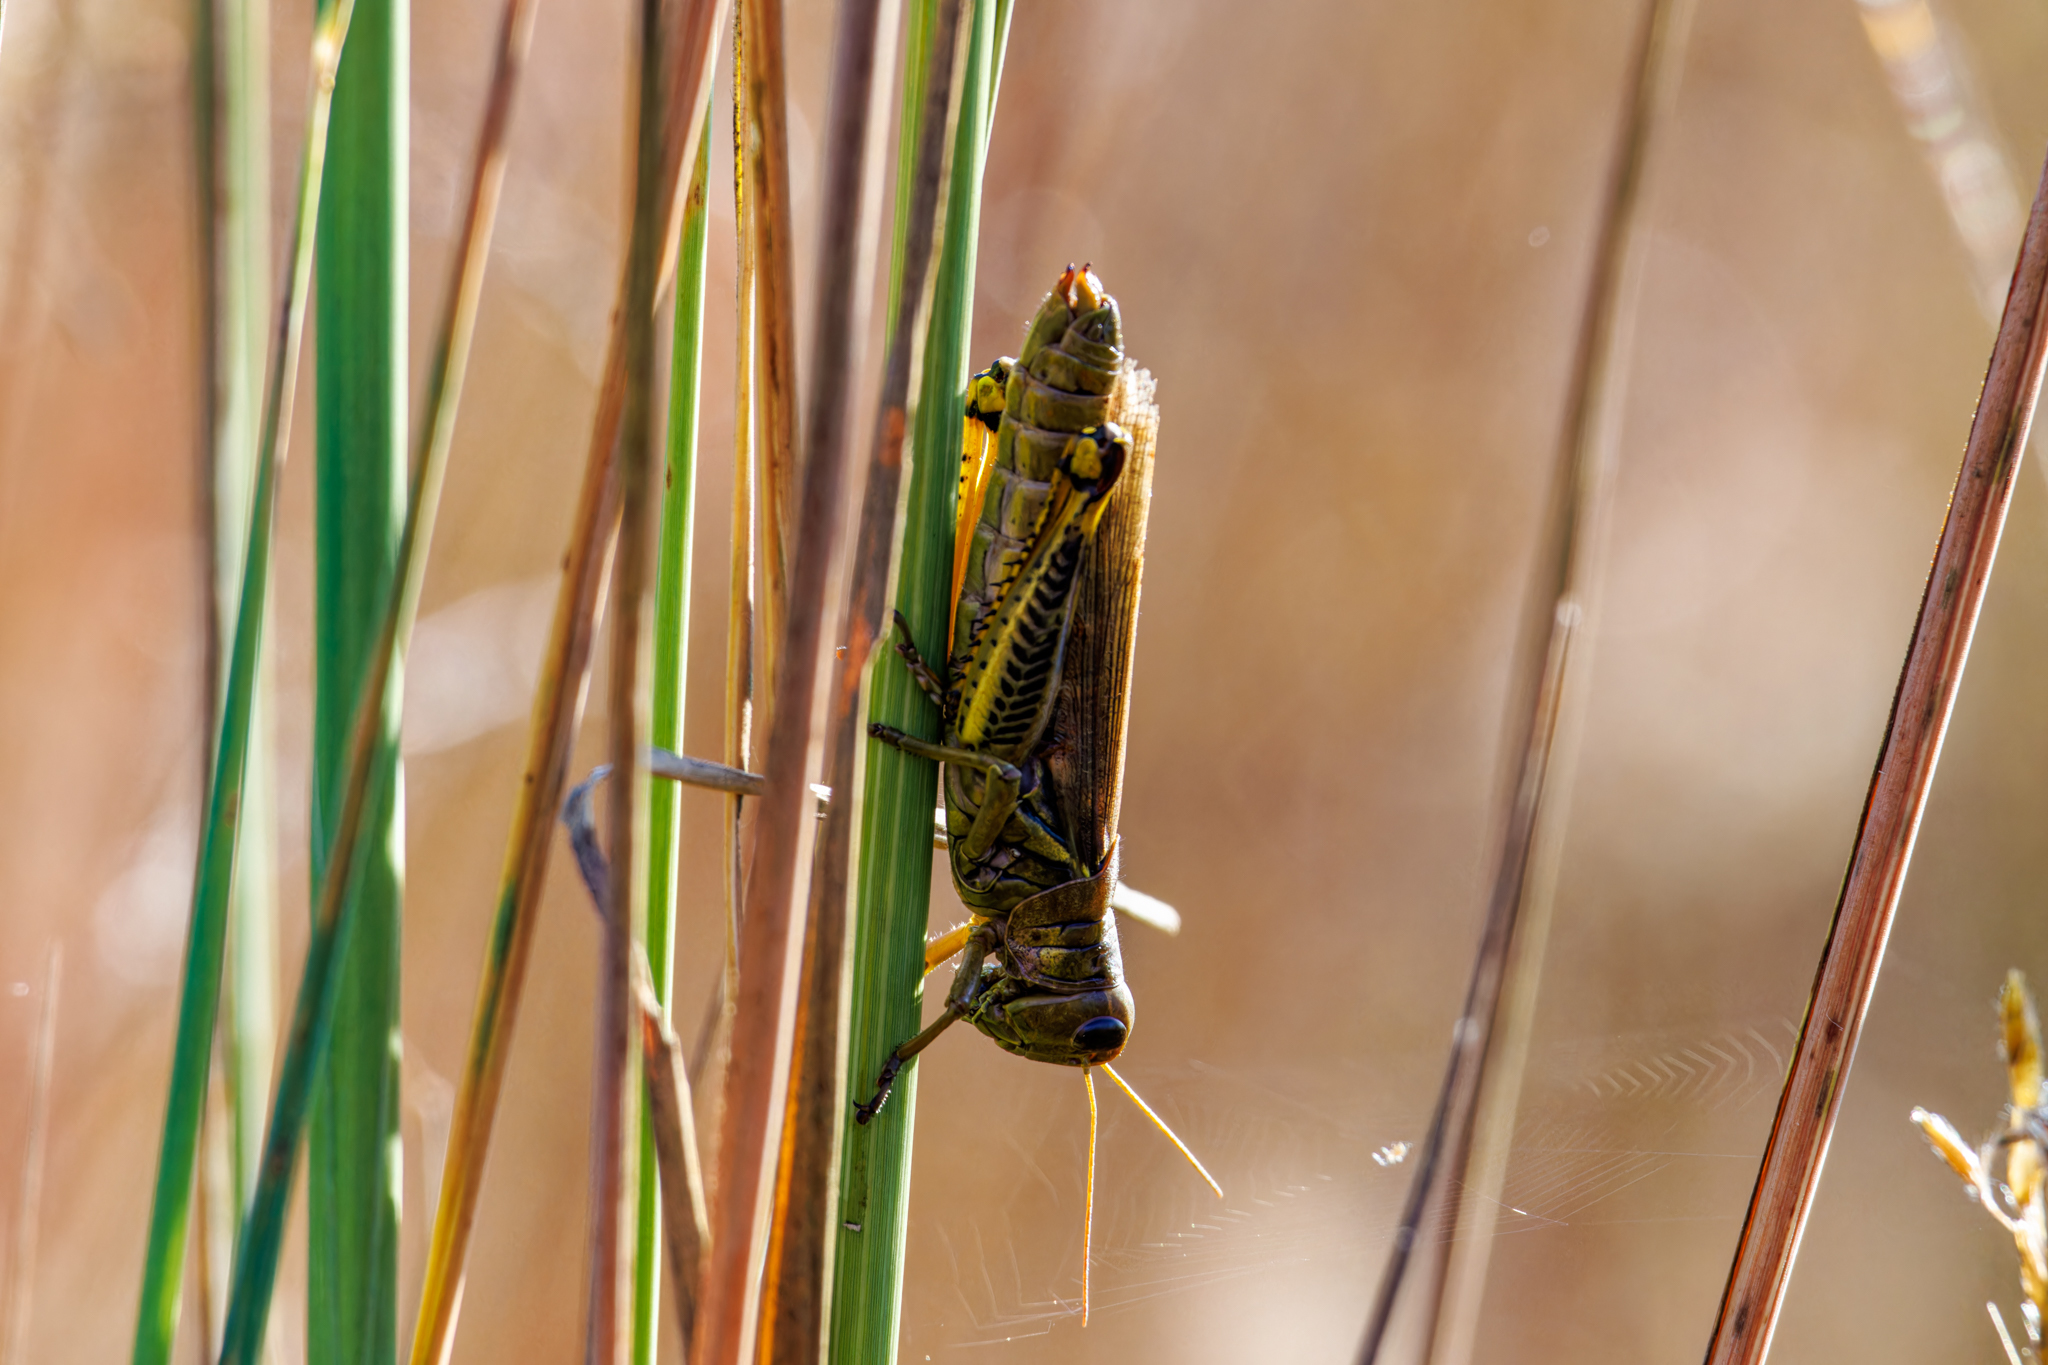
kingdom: Animalia
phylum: Arthropoda
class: Insecta
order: Orthoptera
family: Acrididae
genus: Melanoplus
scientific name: Melanoplus differentialis
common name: Differential grasshopper
